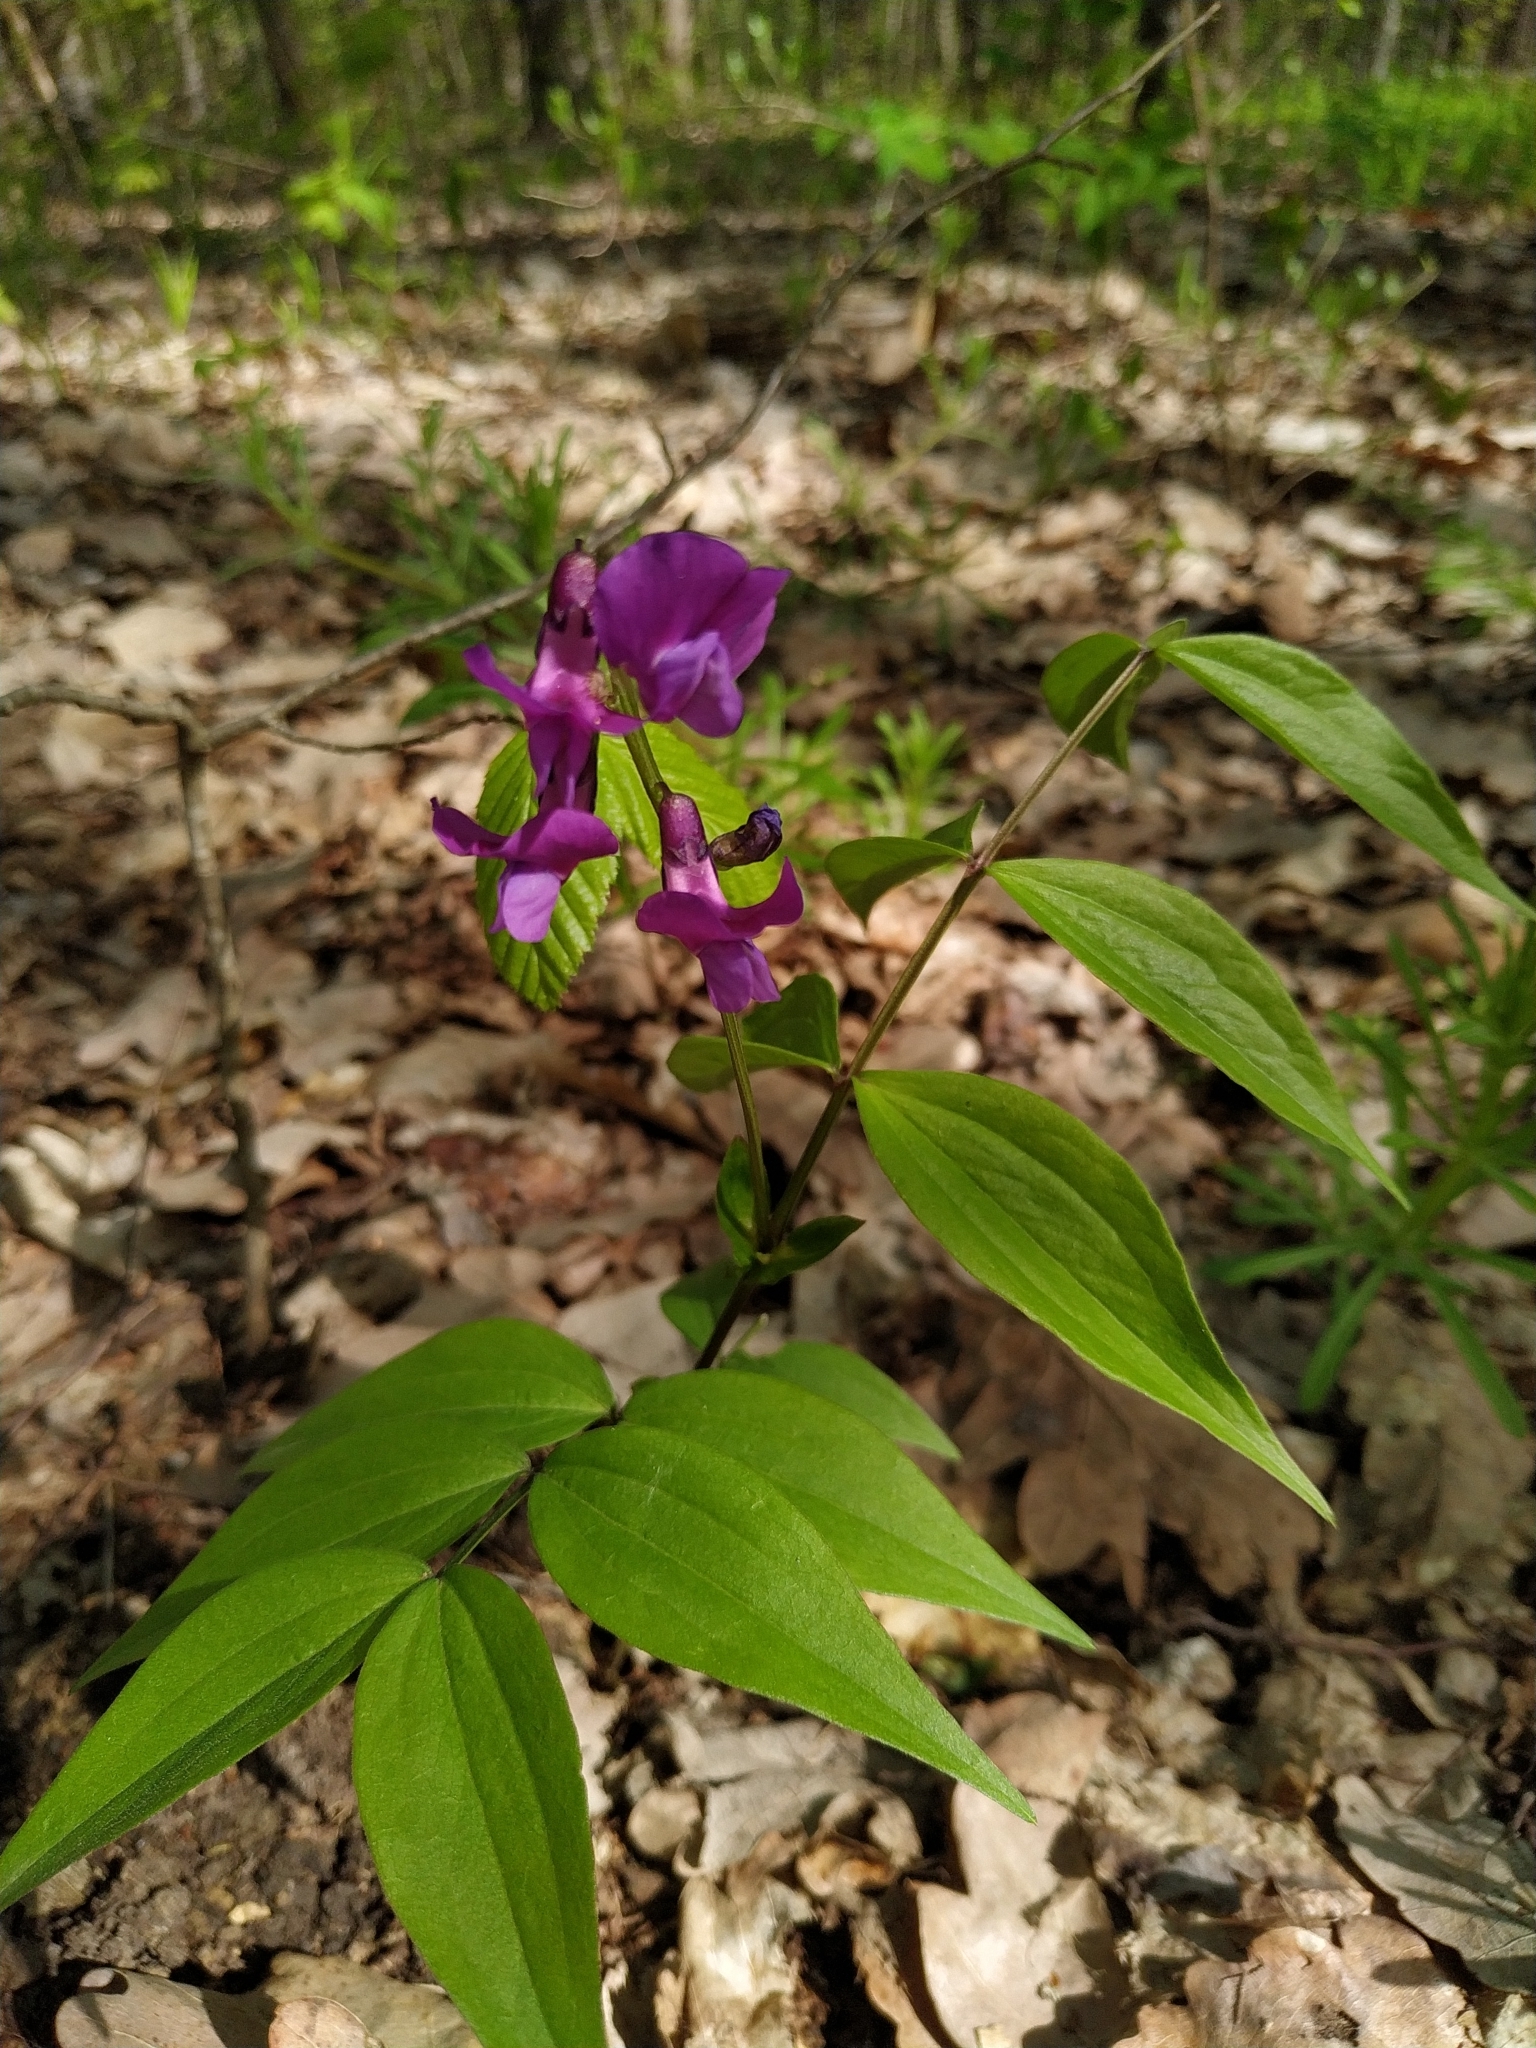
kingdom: Plantae
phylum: Tracheophyta
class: Magnoliopsida
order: Fabales
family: Fabaceae
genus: Lathyrus
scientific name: Lathyrus vernus
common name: Spring pea
